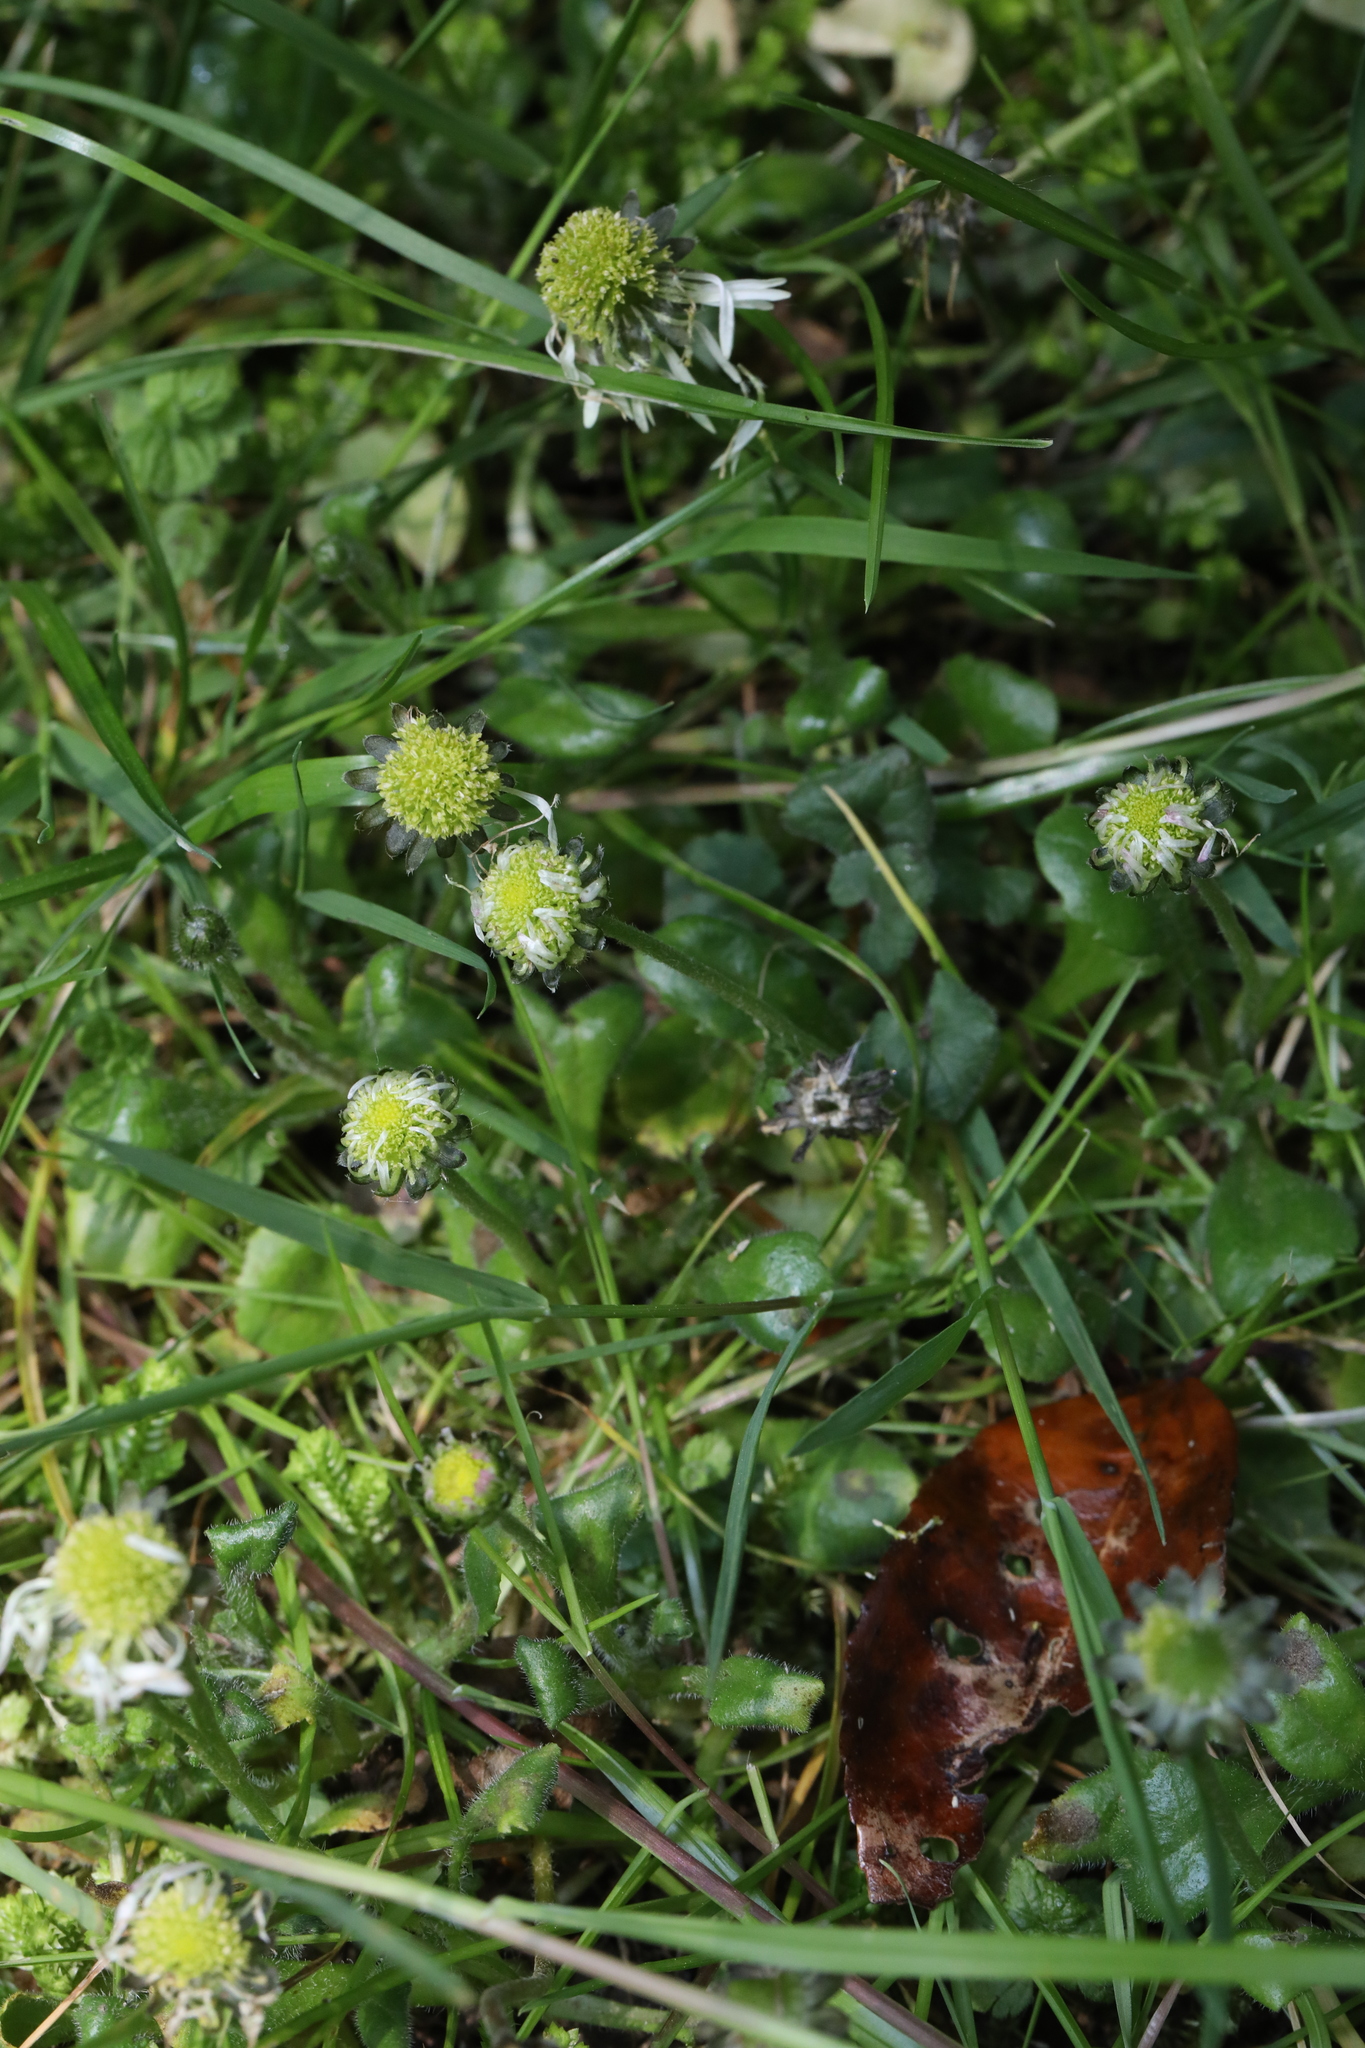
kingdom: Plantae
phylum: Tracheophyta
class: Magnoliopsida
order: Asterales
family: Asteraceae
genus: Bellis
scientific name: Bellis perennis
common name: Lawndaisy
